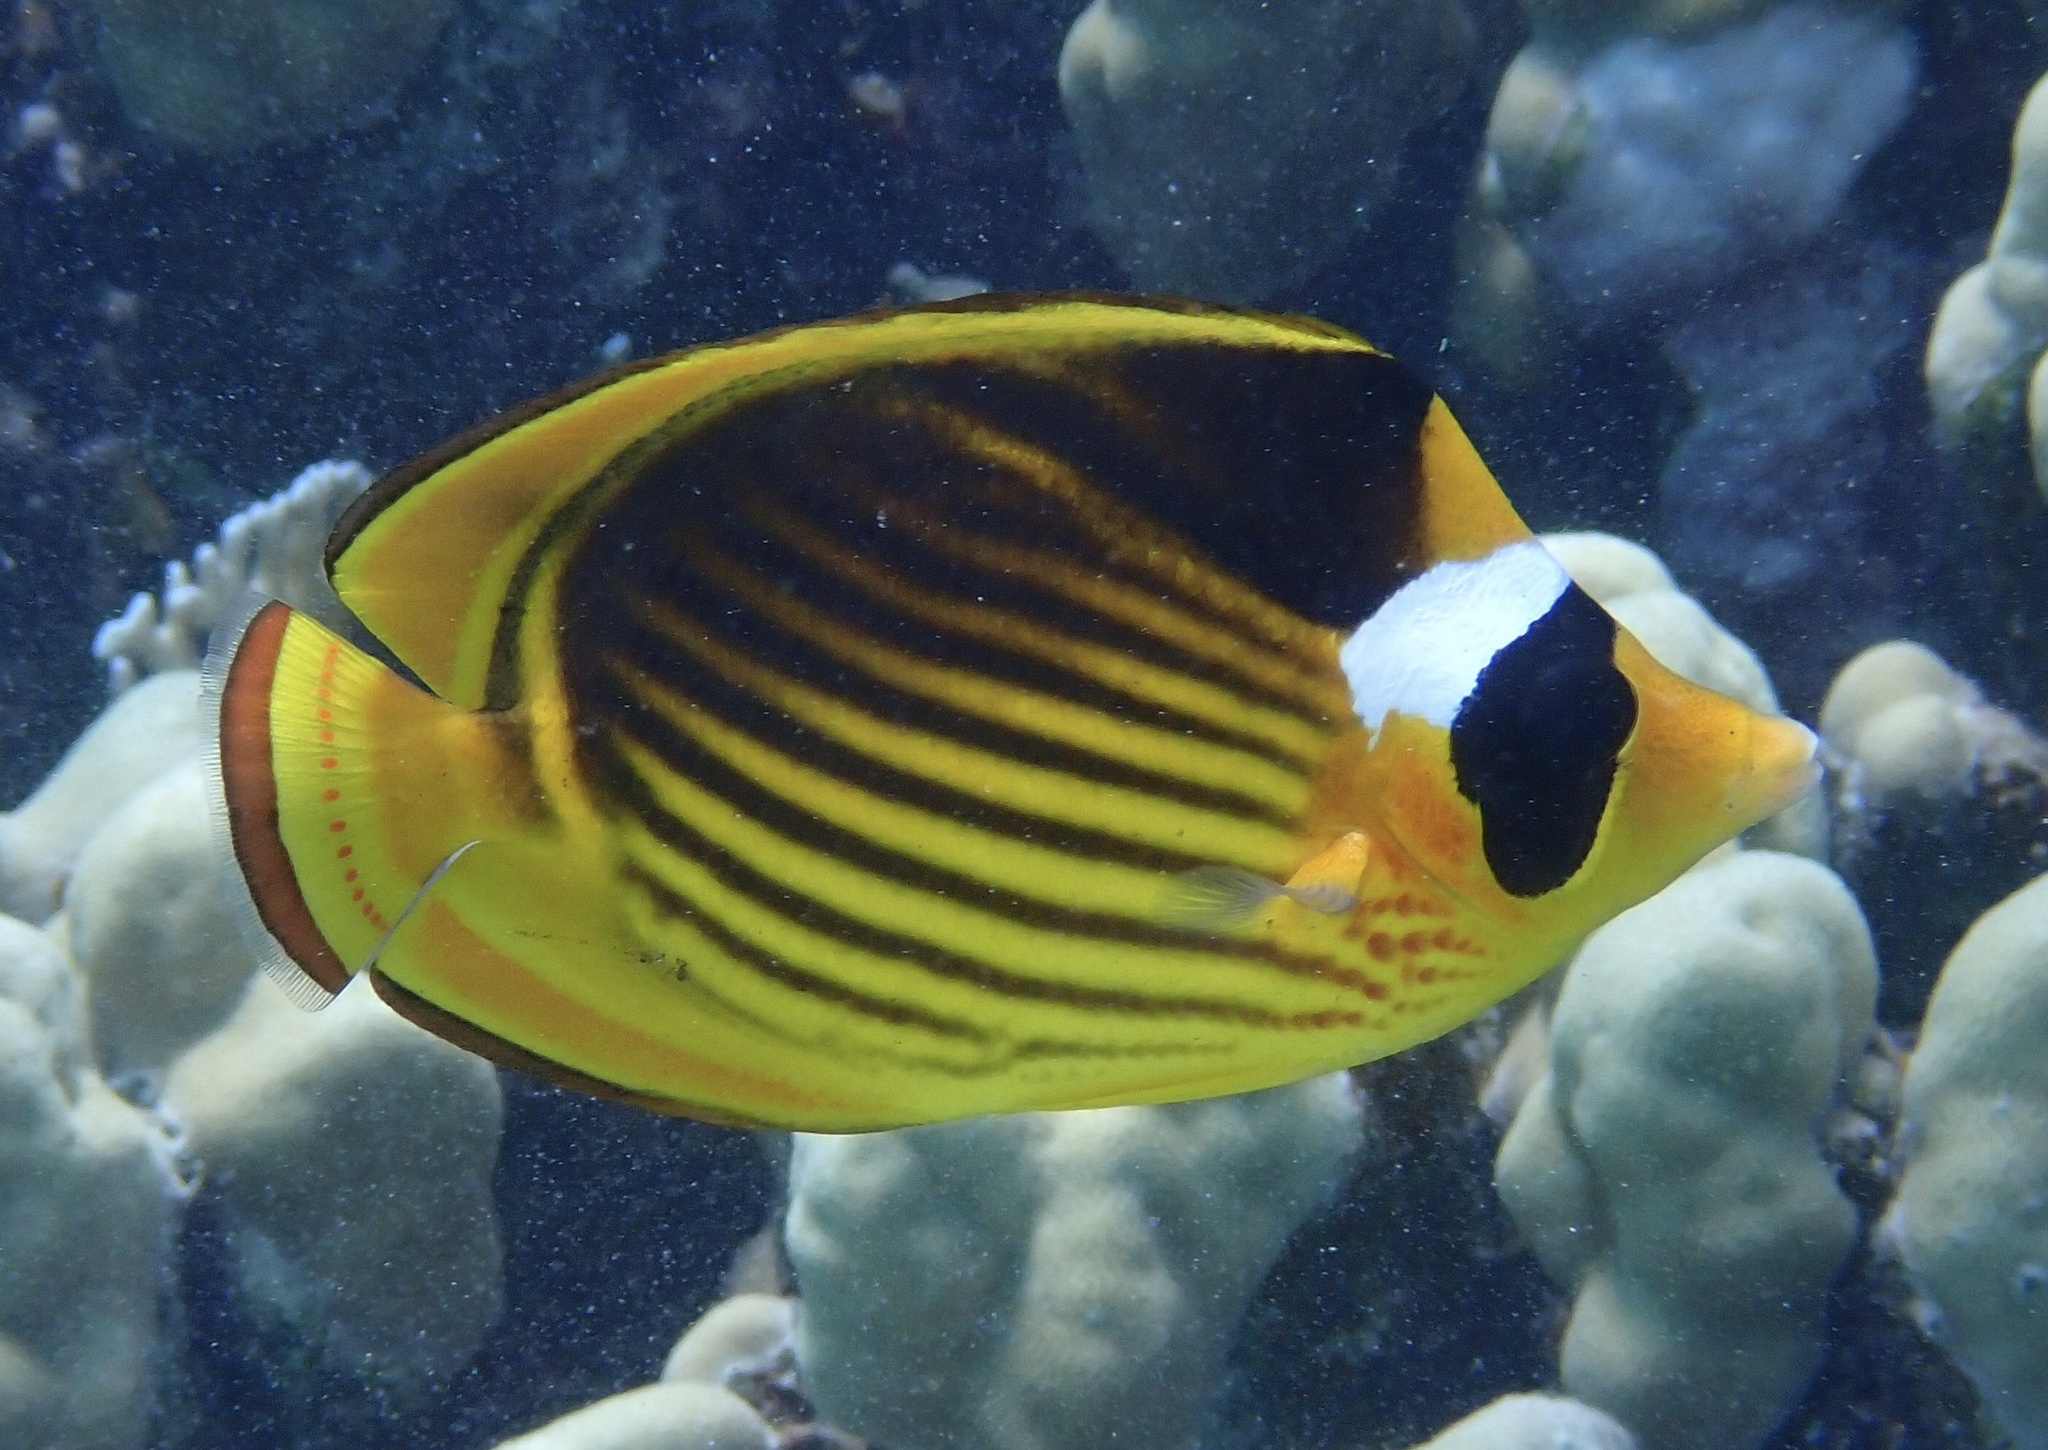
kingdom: Animalia
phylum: Chordata
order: Perciformes
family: Chaetodontidae
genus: Chaetodon
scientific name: Chaetodon fasciatus
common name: Diagonal butterflyfish
